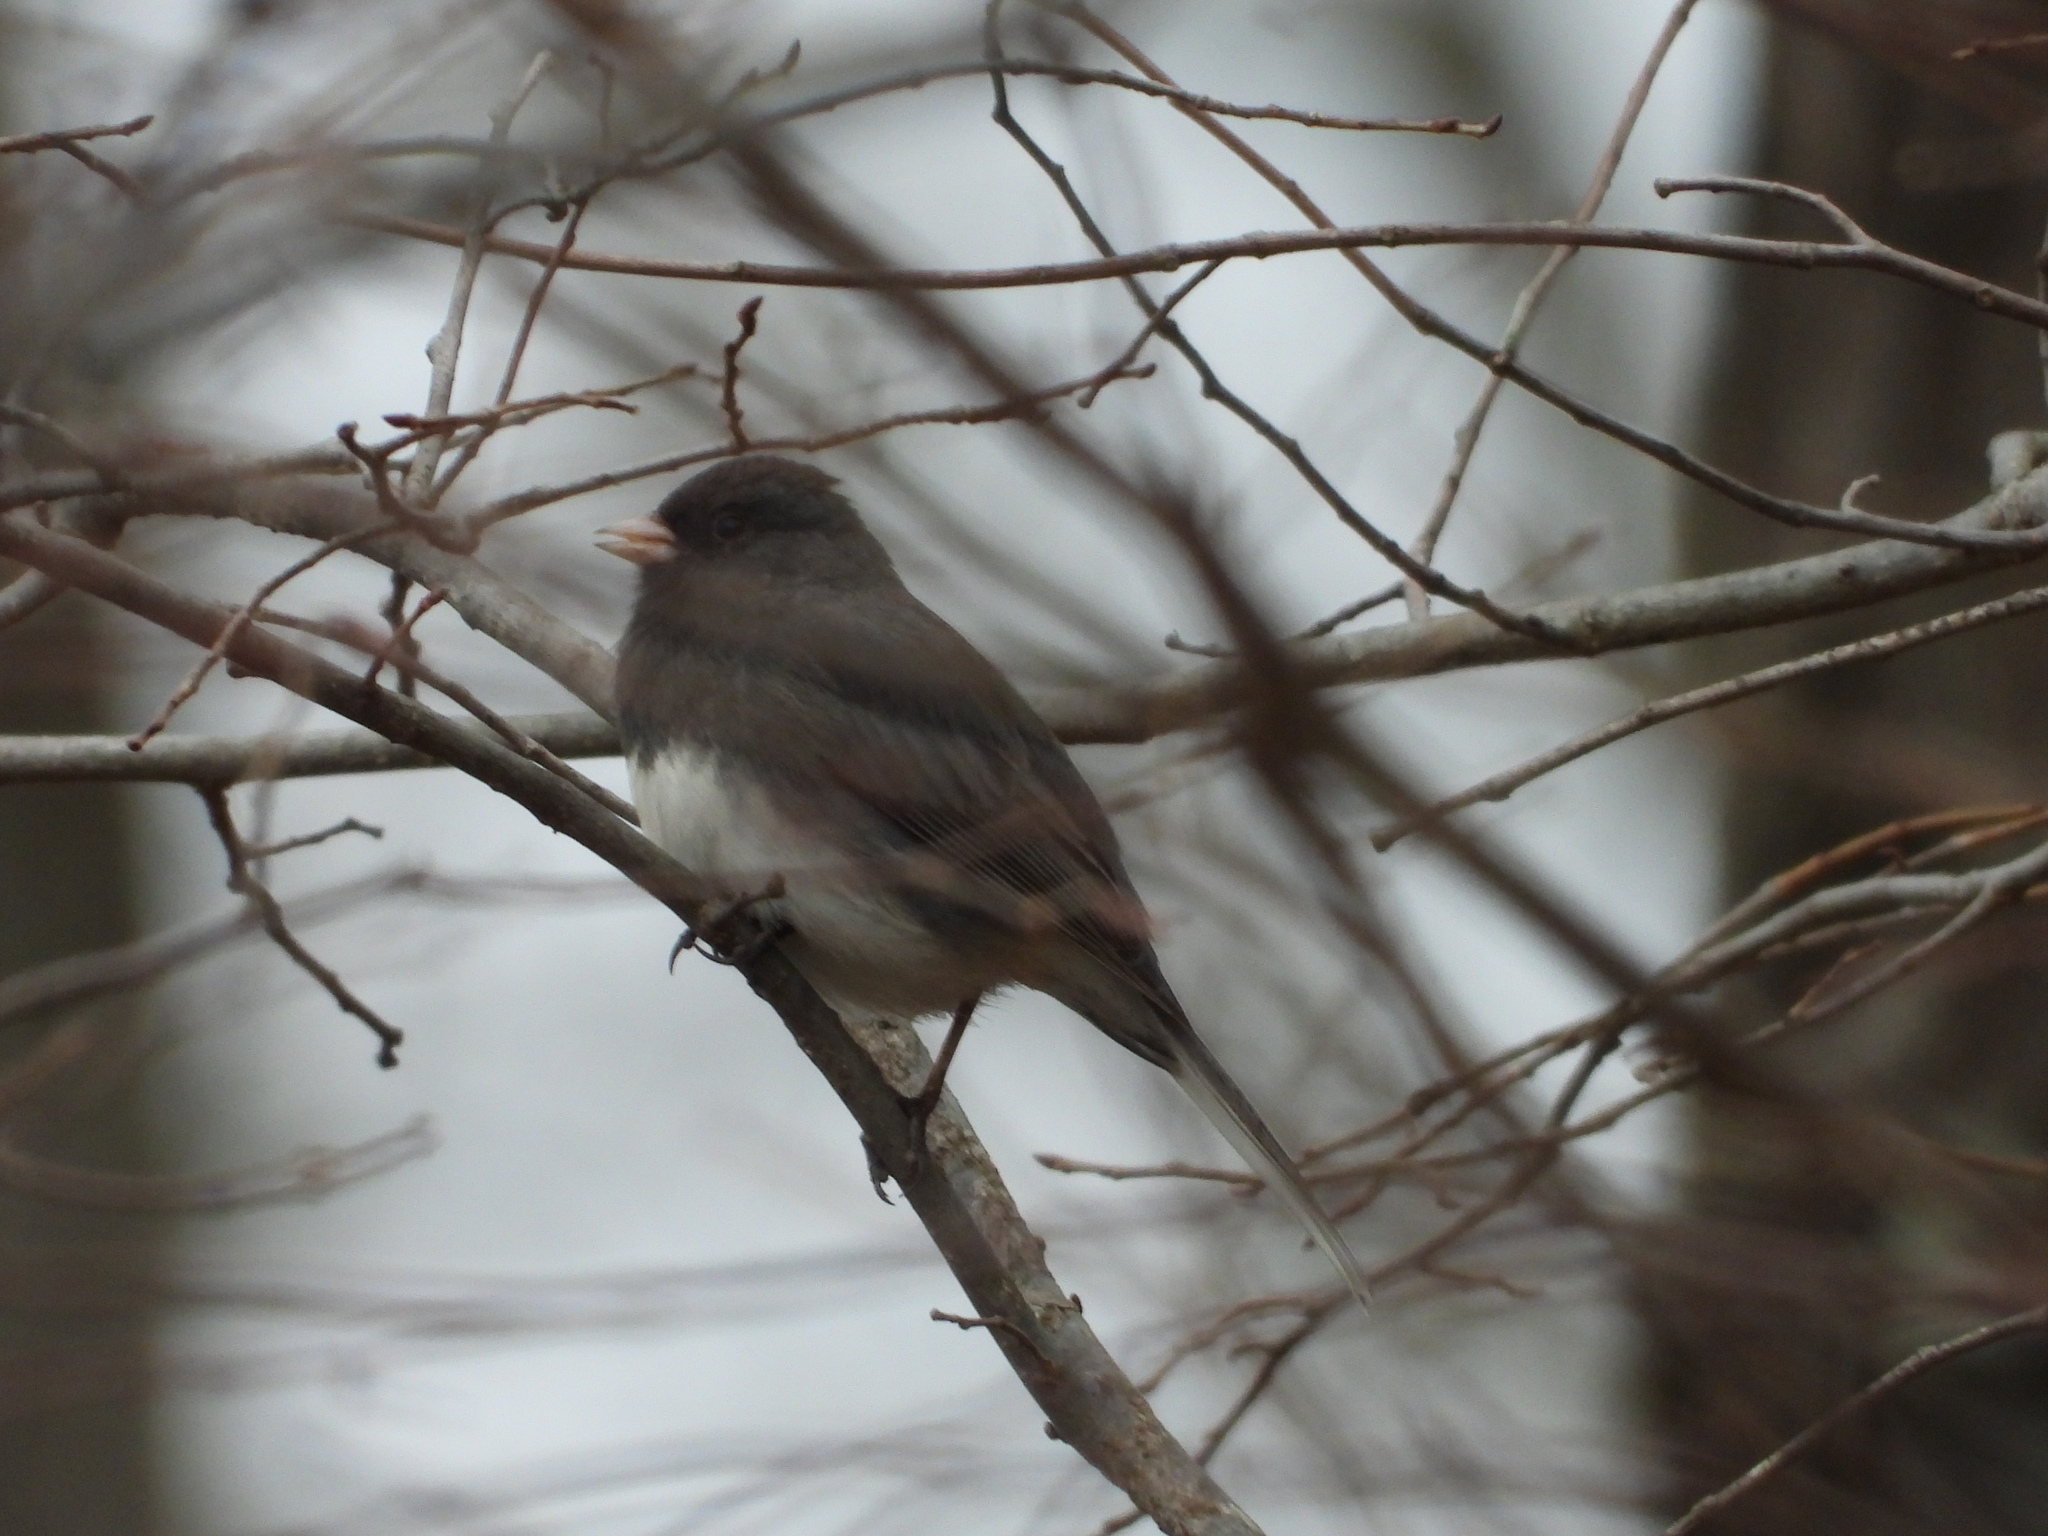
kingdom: Animalia
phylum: Chordata
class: Aves
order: Passeriformes
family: Passerellidae
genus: Junco
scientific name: Junco hyemalis
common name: Dark-eyed junco
